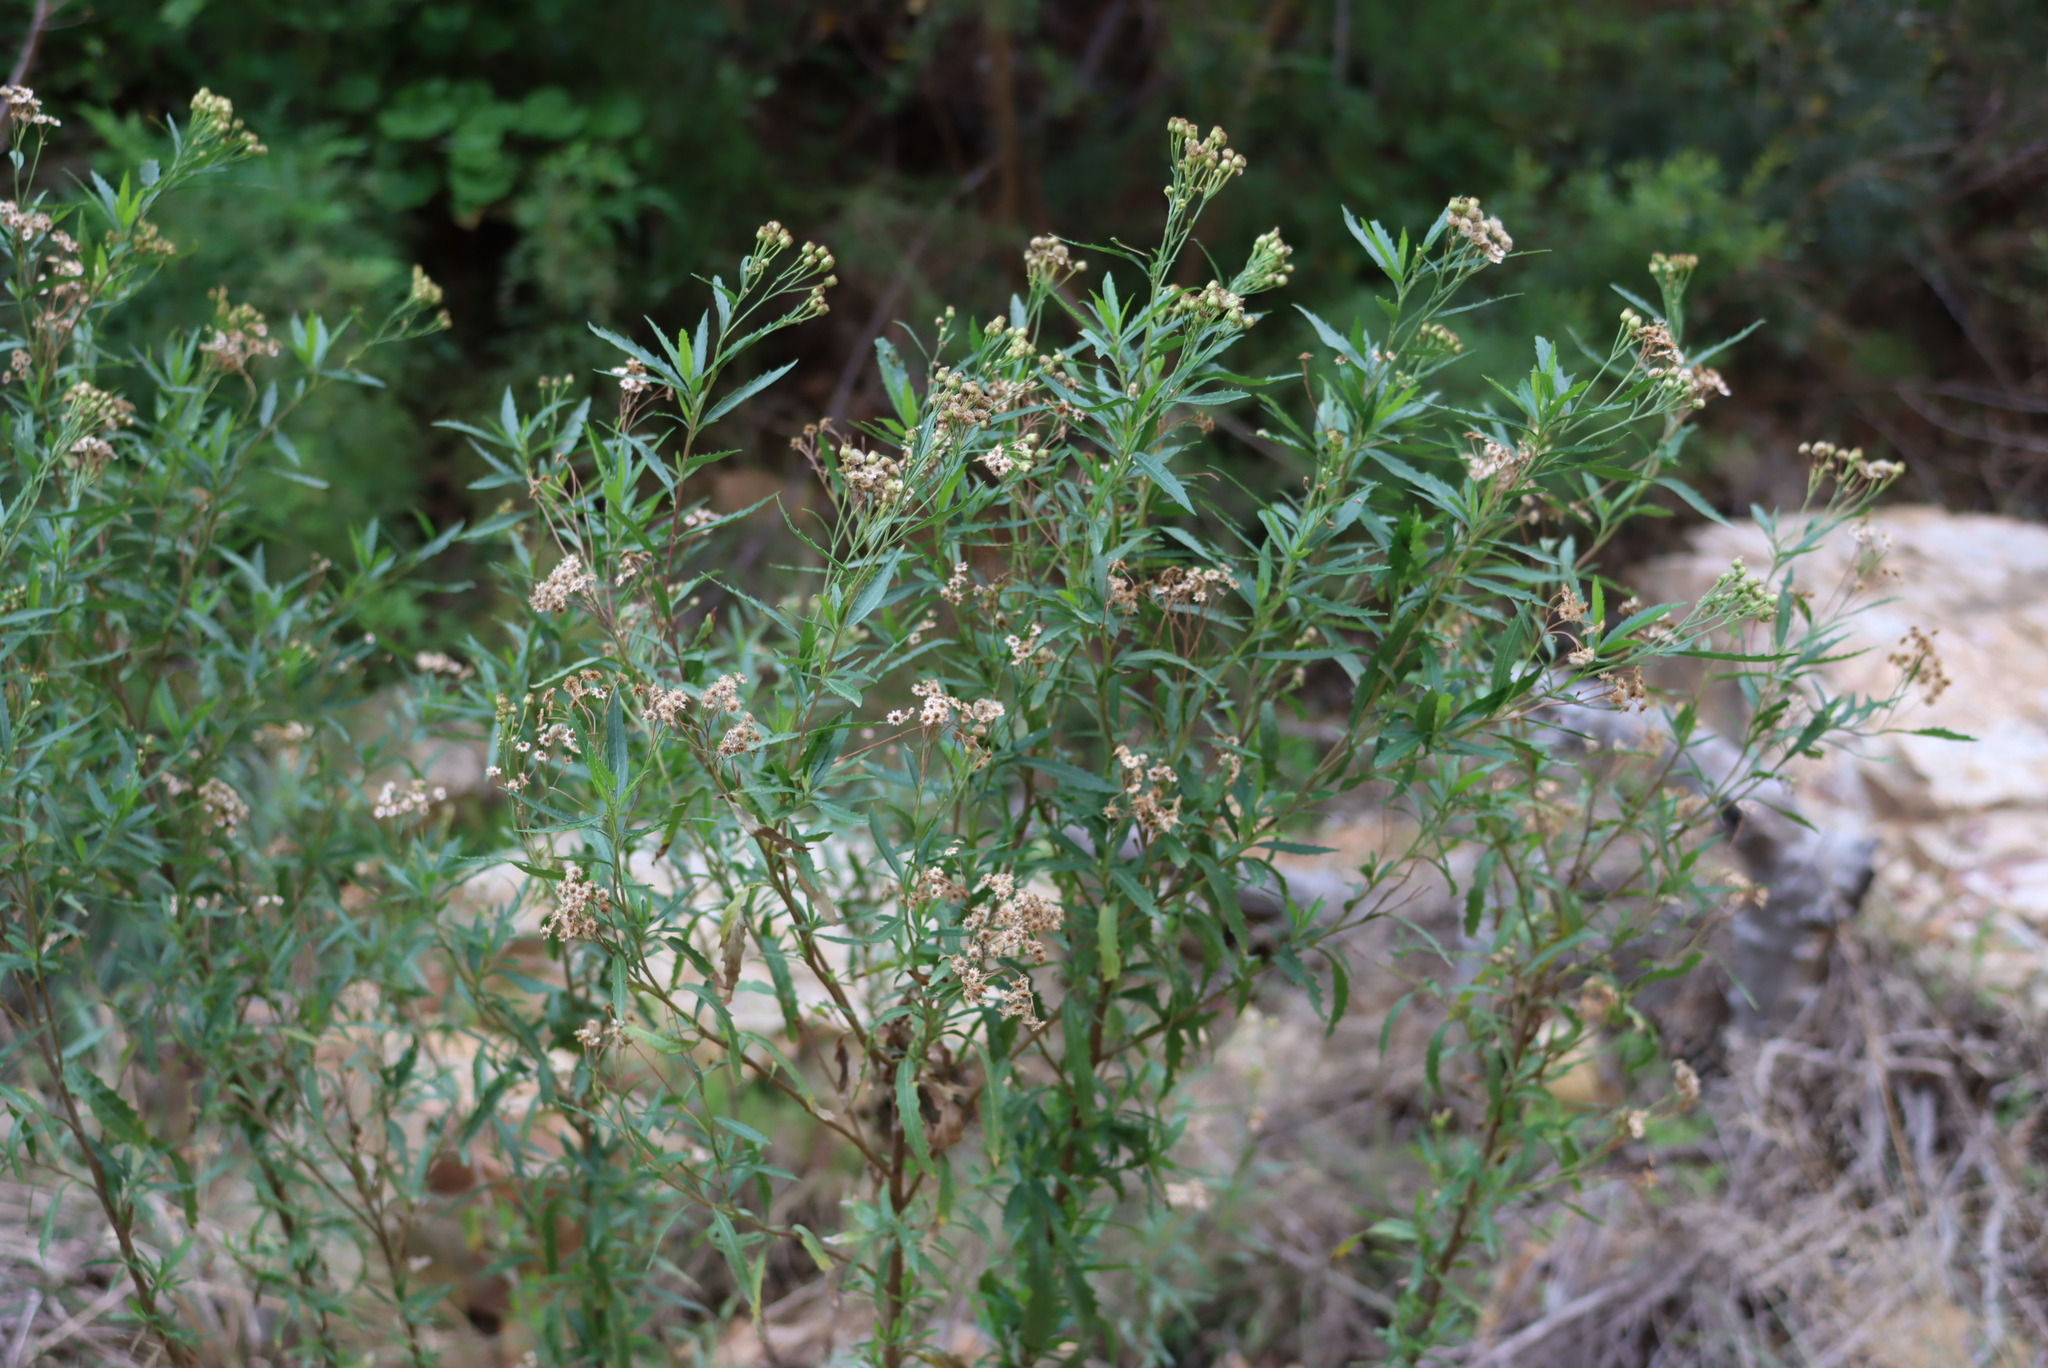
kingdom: Plantae
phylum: Tracheophyta
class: Magnoliopsida
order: Asterales
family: Asteraceae
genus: Nidorella
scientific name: Nidorella ivifolia
